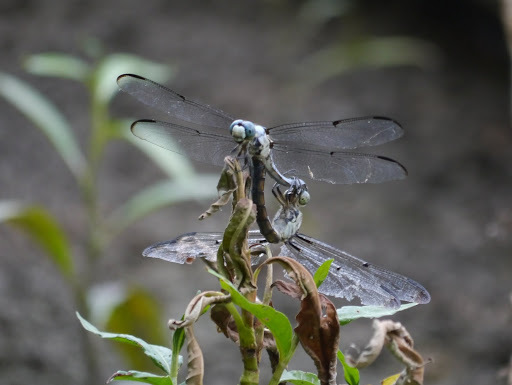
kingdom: Animalia
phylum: Arthropoda
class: Insecta
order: Odonata
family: Libellulidae
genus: Libellula
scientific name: Libellula vibrans
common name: Great blue skimmer
